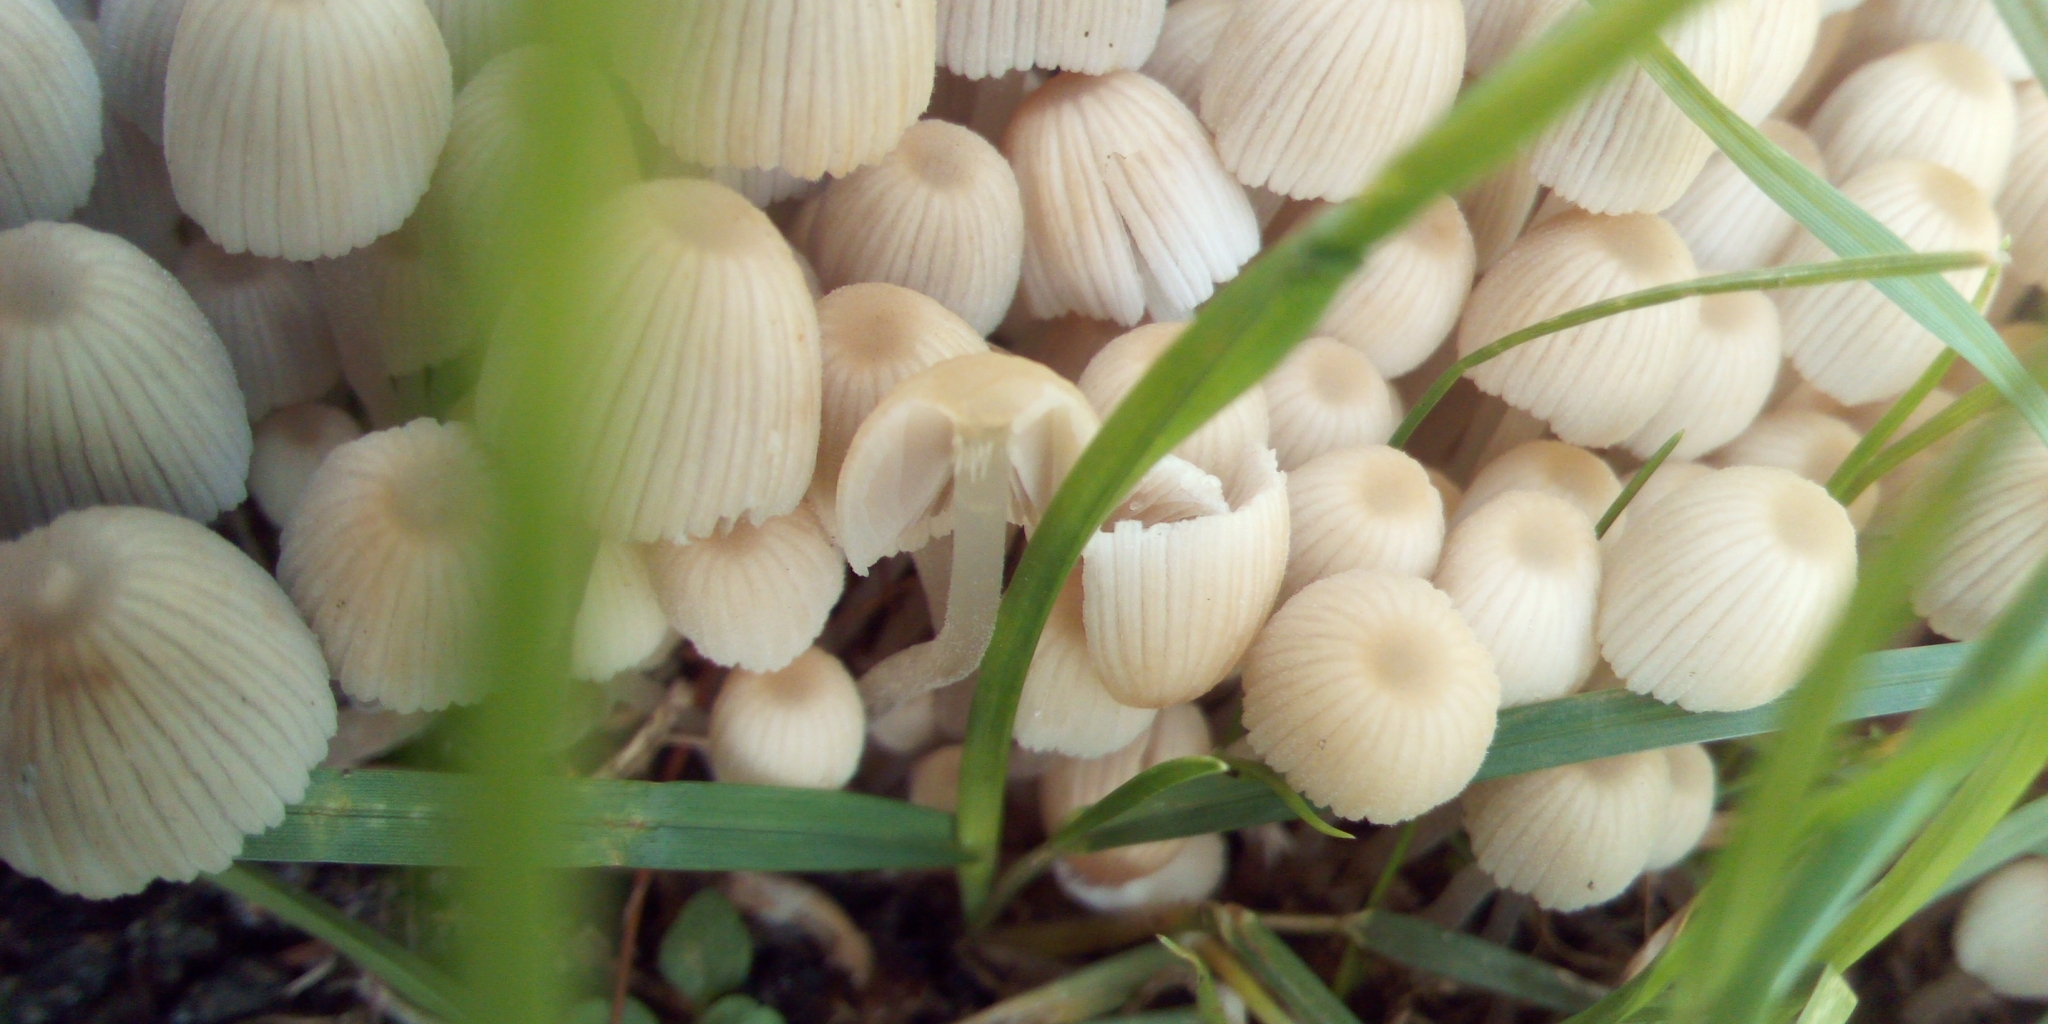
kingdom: Fungi
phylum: Basidiomycota
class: Agaricomycetes
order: Agaricales
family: Psathyrellaceae
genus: Coprinellus
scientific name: Coprinellus disseminatus
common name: Fairies' bonnets
